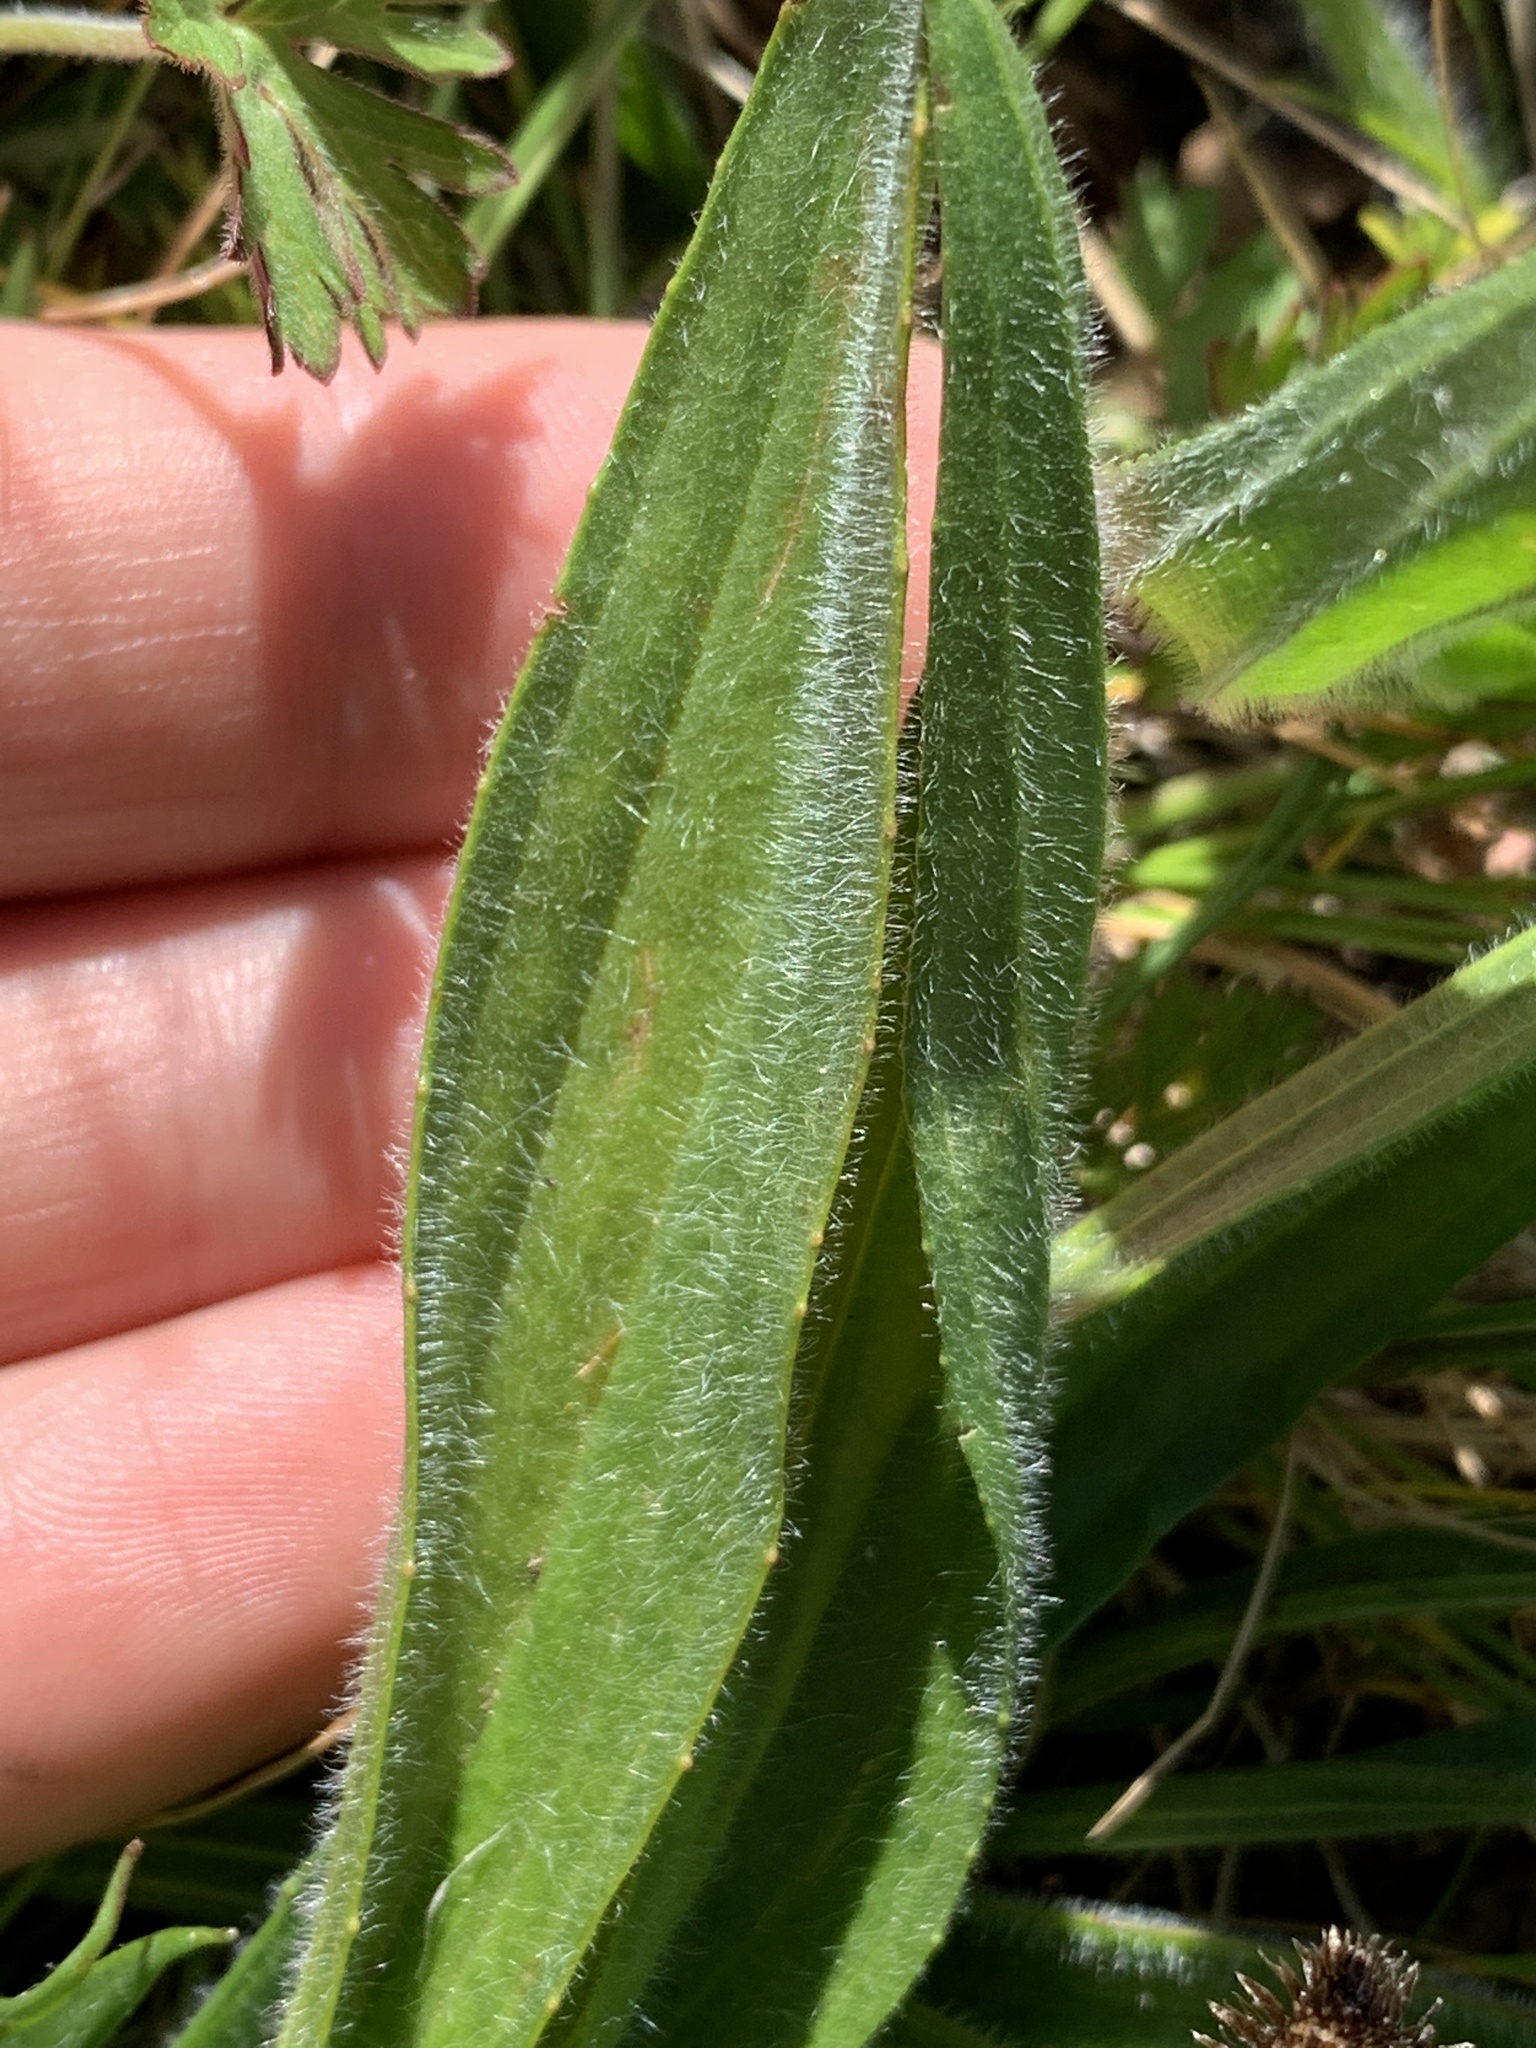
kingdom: Plantae
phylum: Tracheophyta
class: Magnoliopsida
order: Lamiales
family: Plantaginaceae
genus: Plantago
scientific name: Plantago lanceolata
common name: Ribwort plantain
